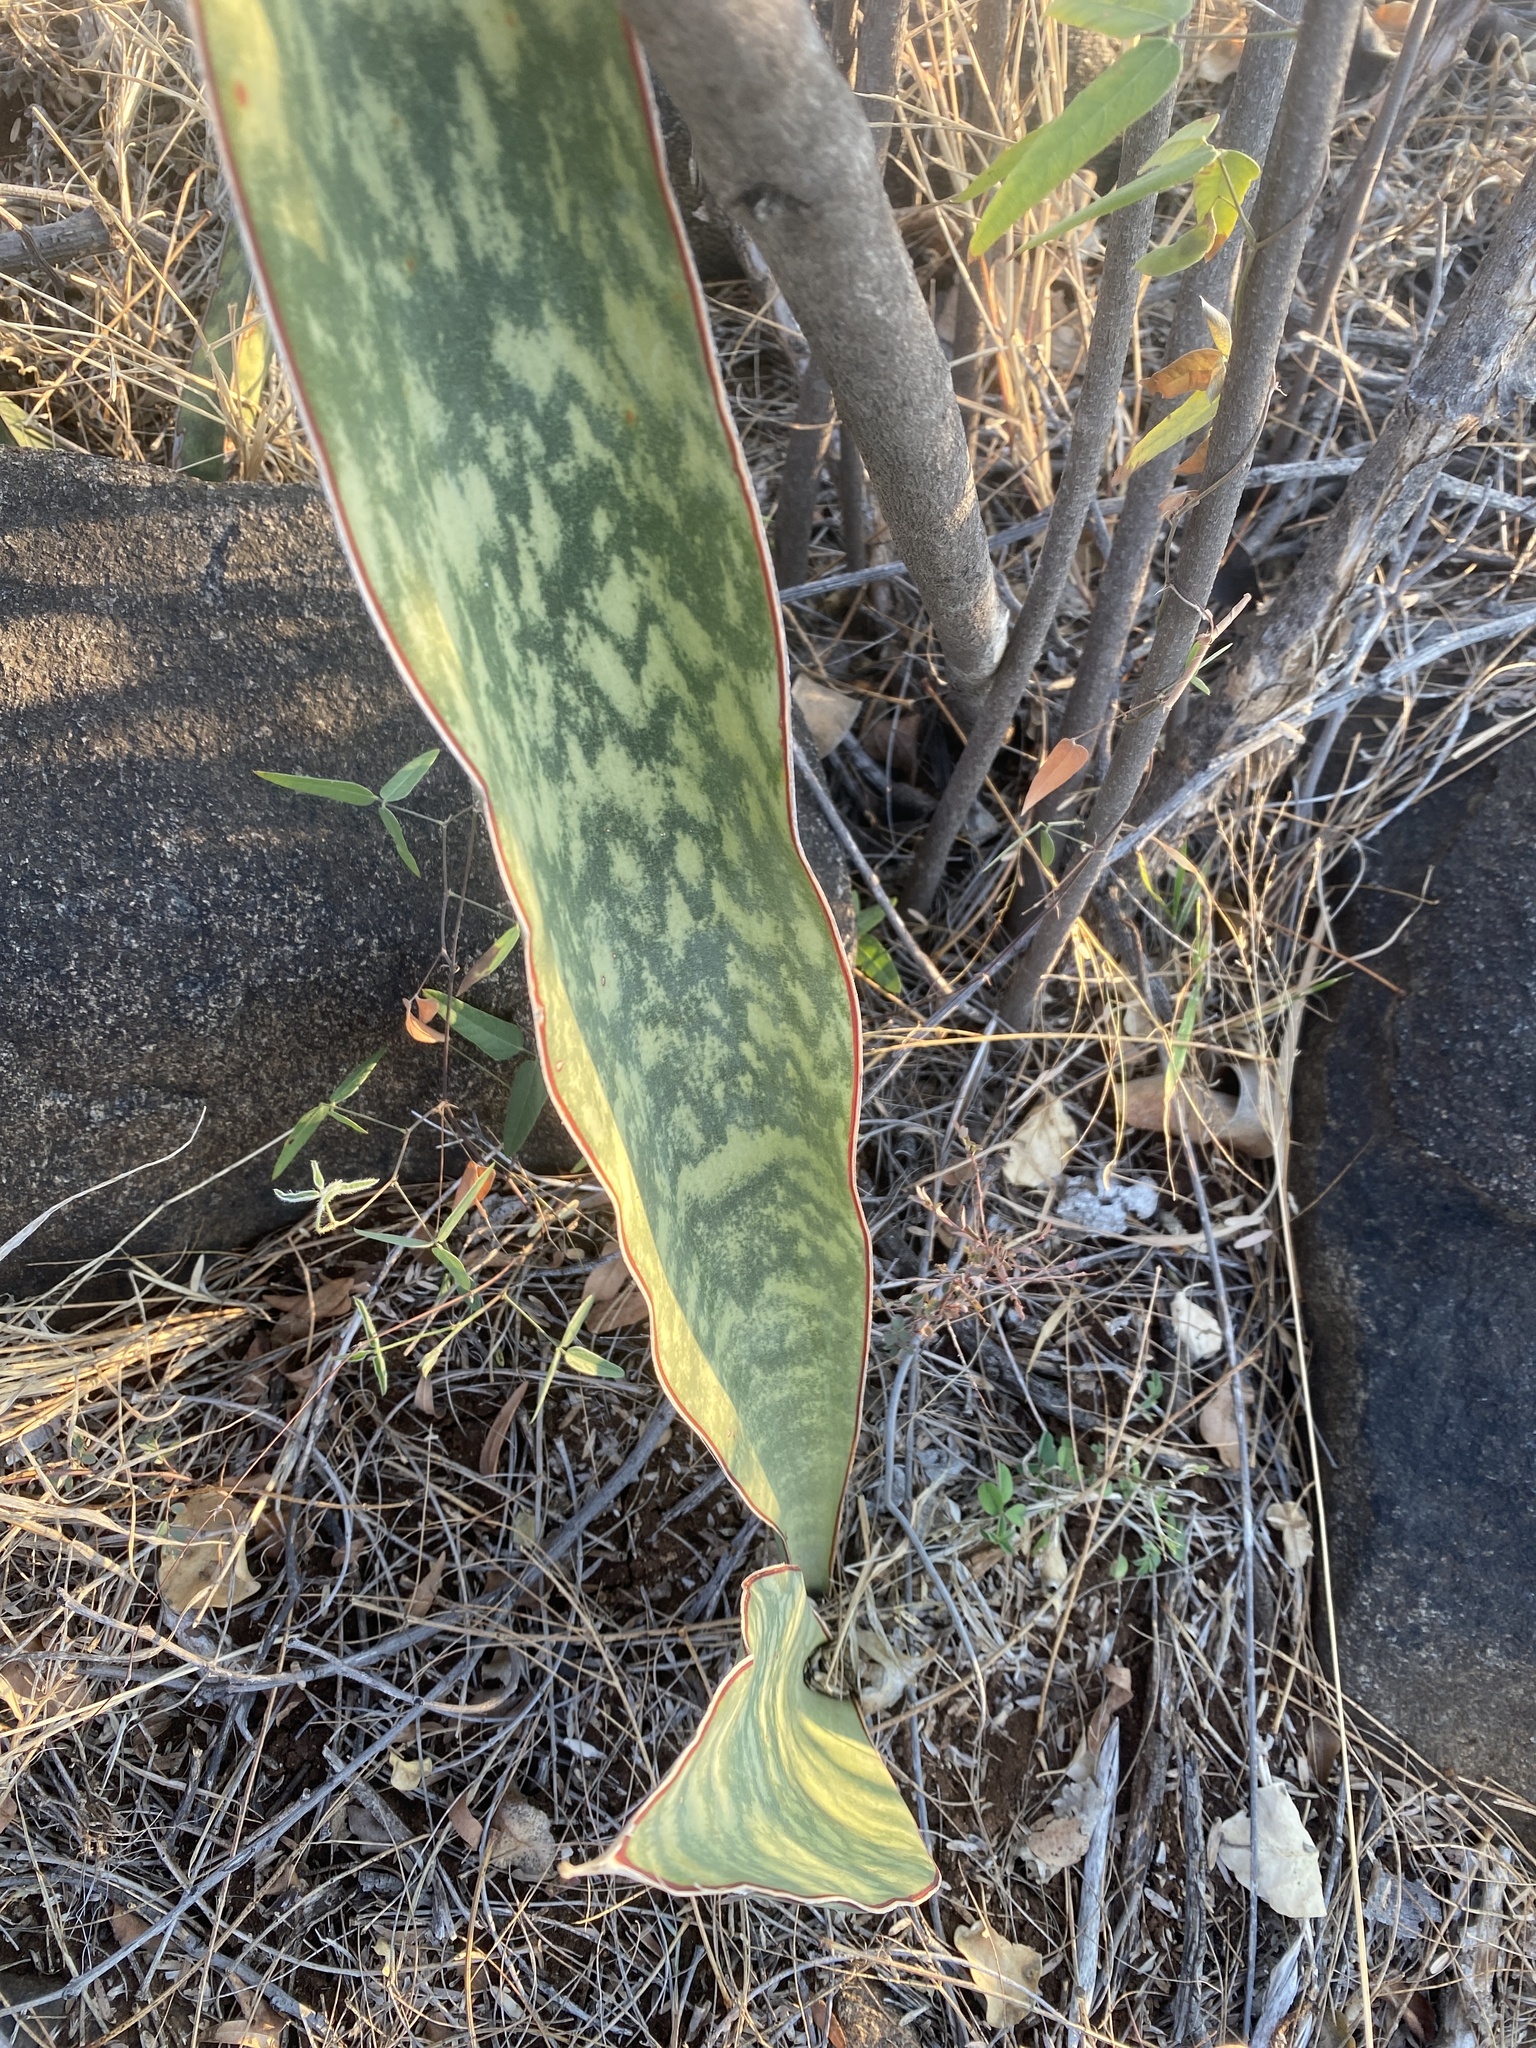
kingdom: Plantae
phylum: Tracheophyta
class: Liliopsida
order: Asparagales
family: Asparagaceae
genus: Dracaena
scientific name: Dracaena hyacinthoides
